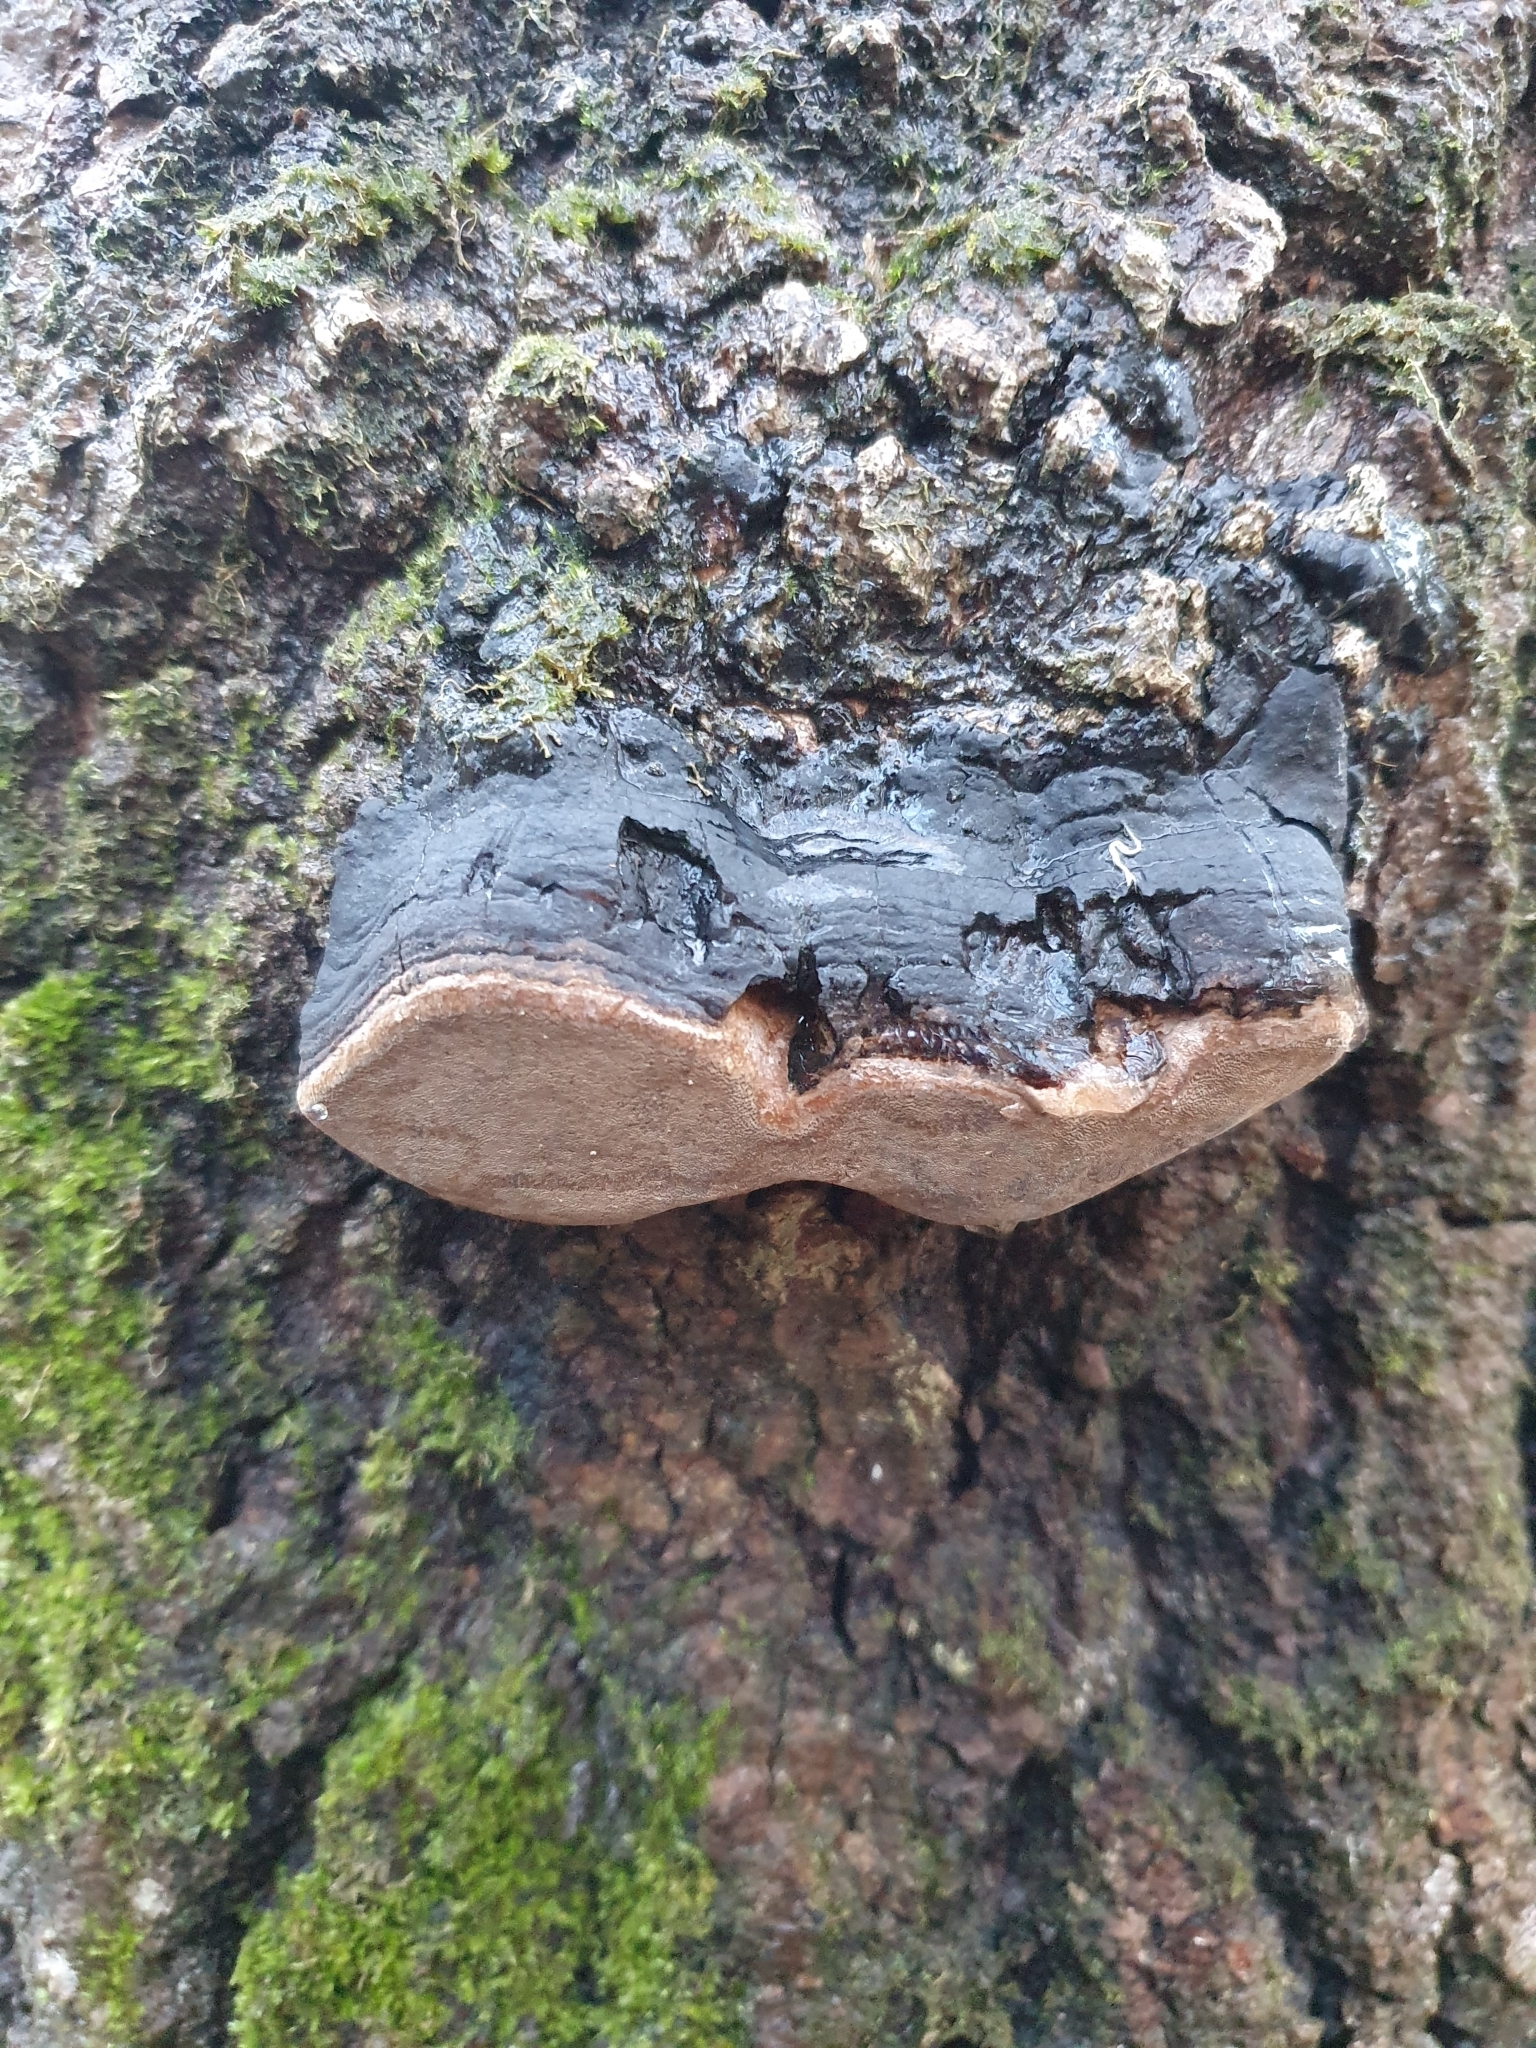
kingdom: Fungi
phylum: Basidiomycota
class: Agaricomycetes
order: Hymenochaetales
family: Hymenochaetaceae
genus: Phellinus
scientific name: Phellinus tremulae
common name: Aspen bracket
